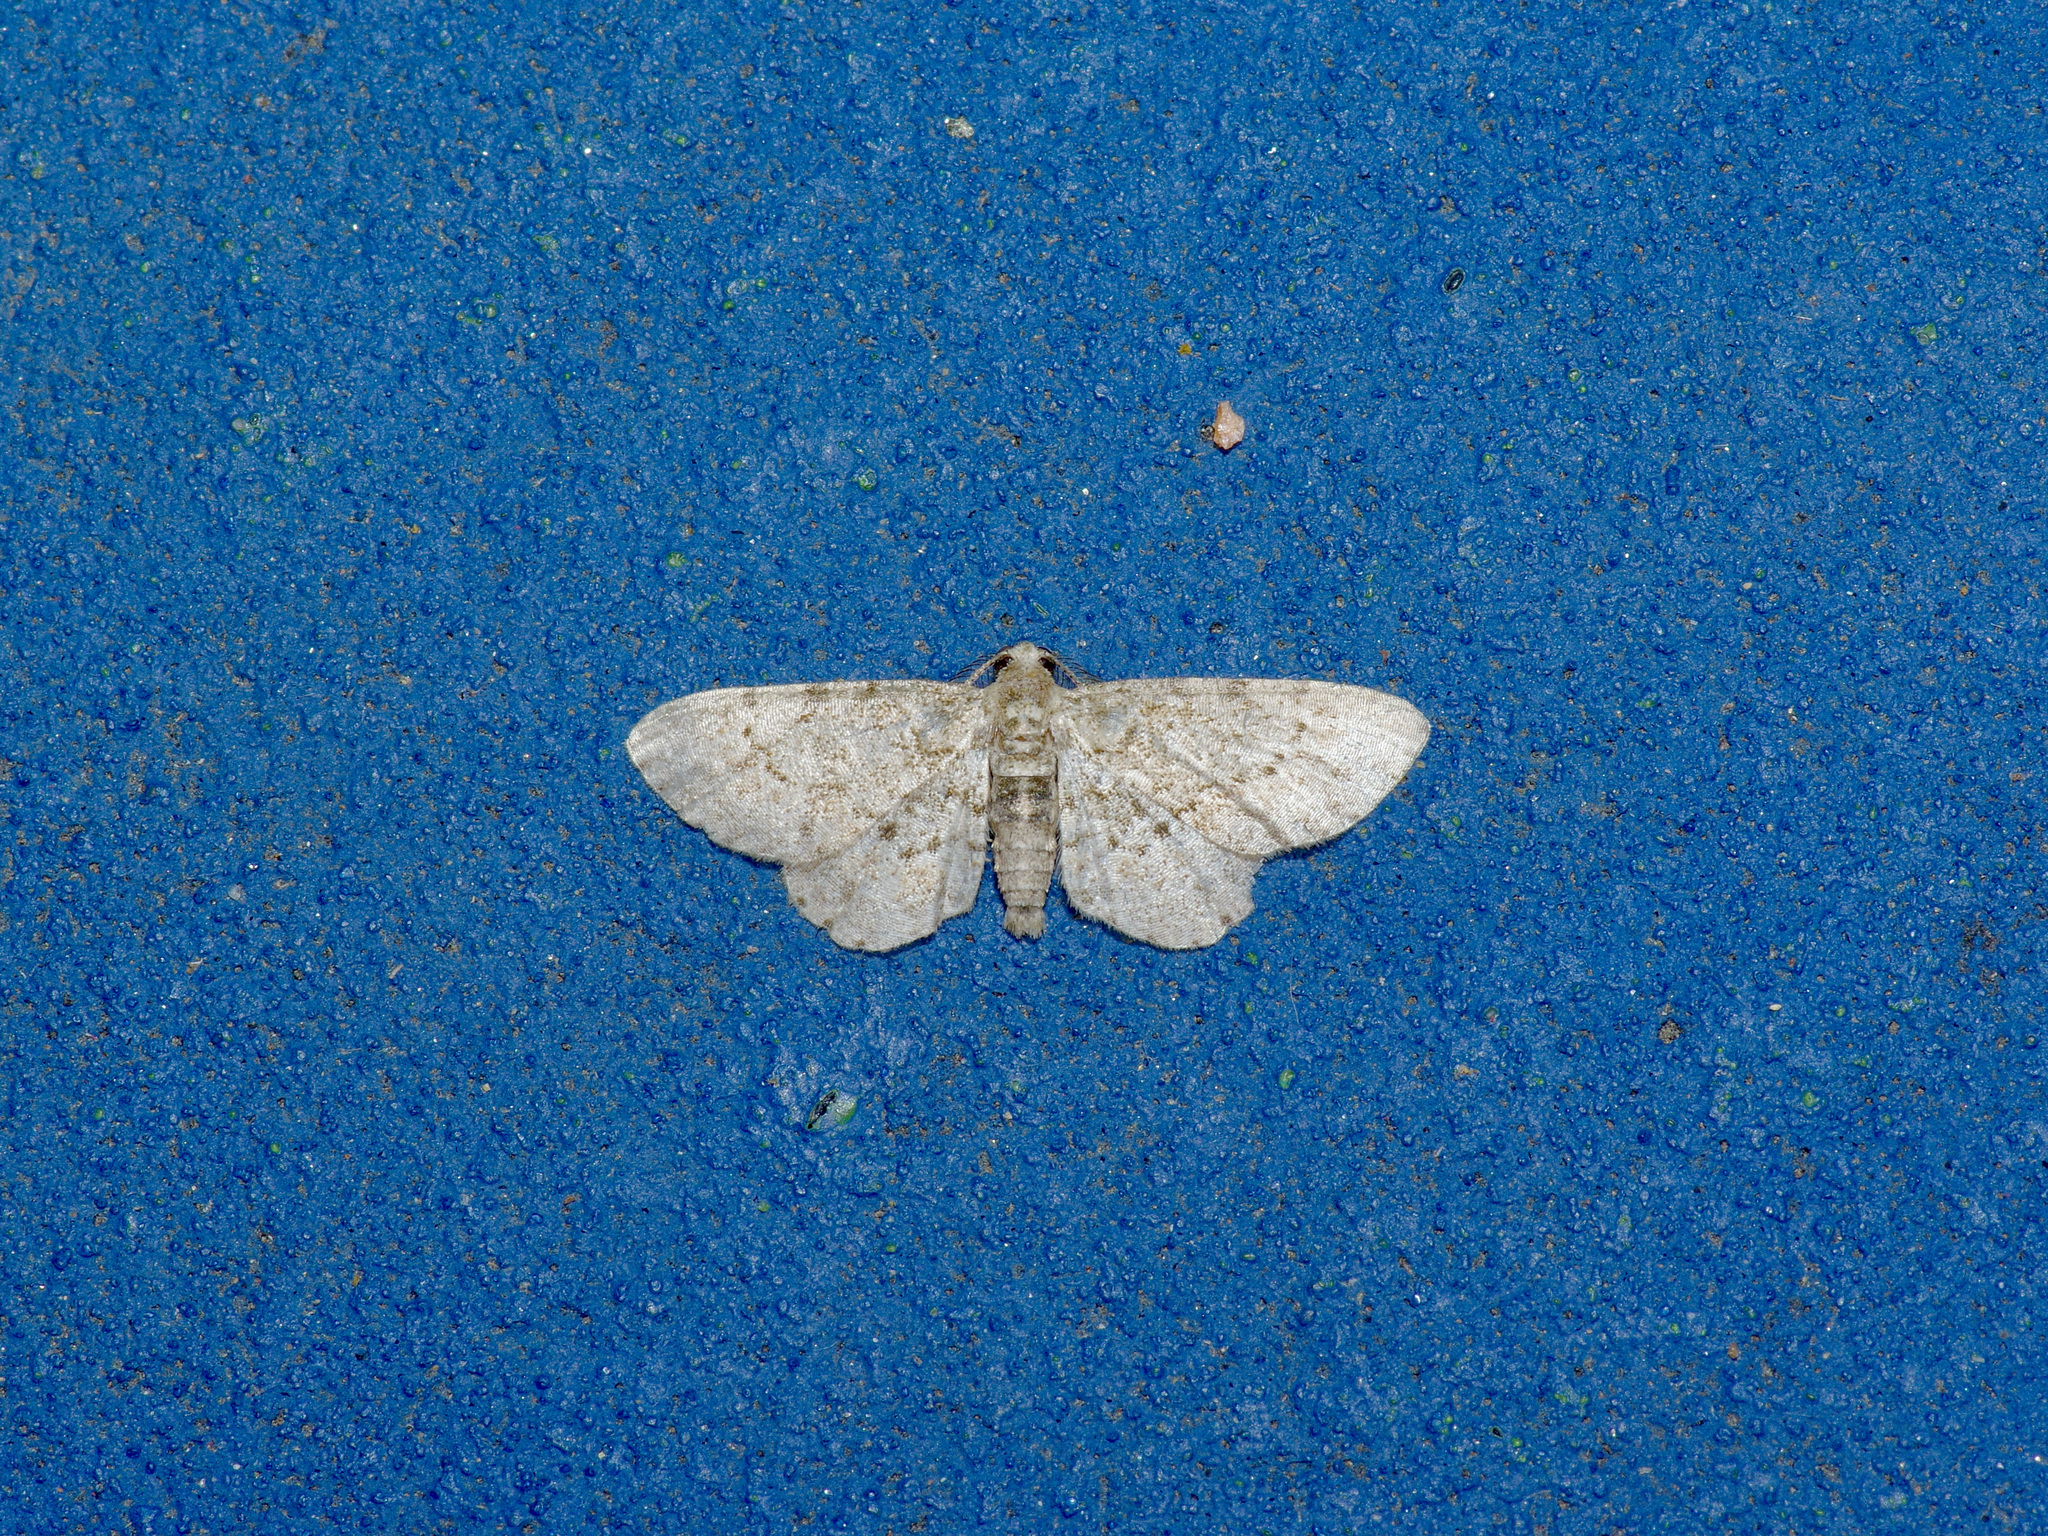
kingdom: Animalia
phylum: Arthropoda
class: Insecta
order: Lepidoptera
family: Geometridae
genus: Glenoides
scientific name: Glenoides texanaria
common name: Texas gray
